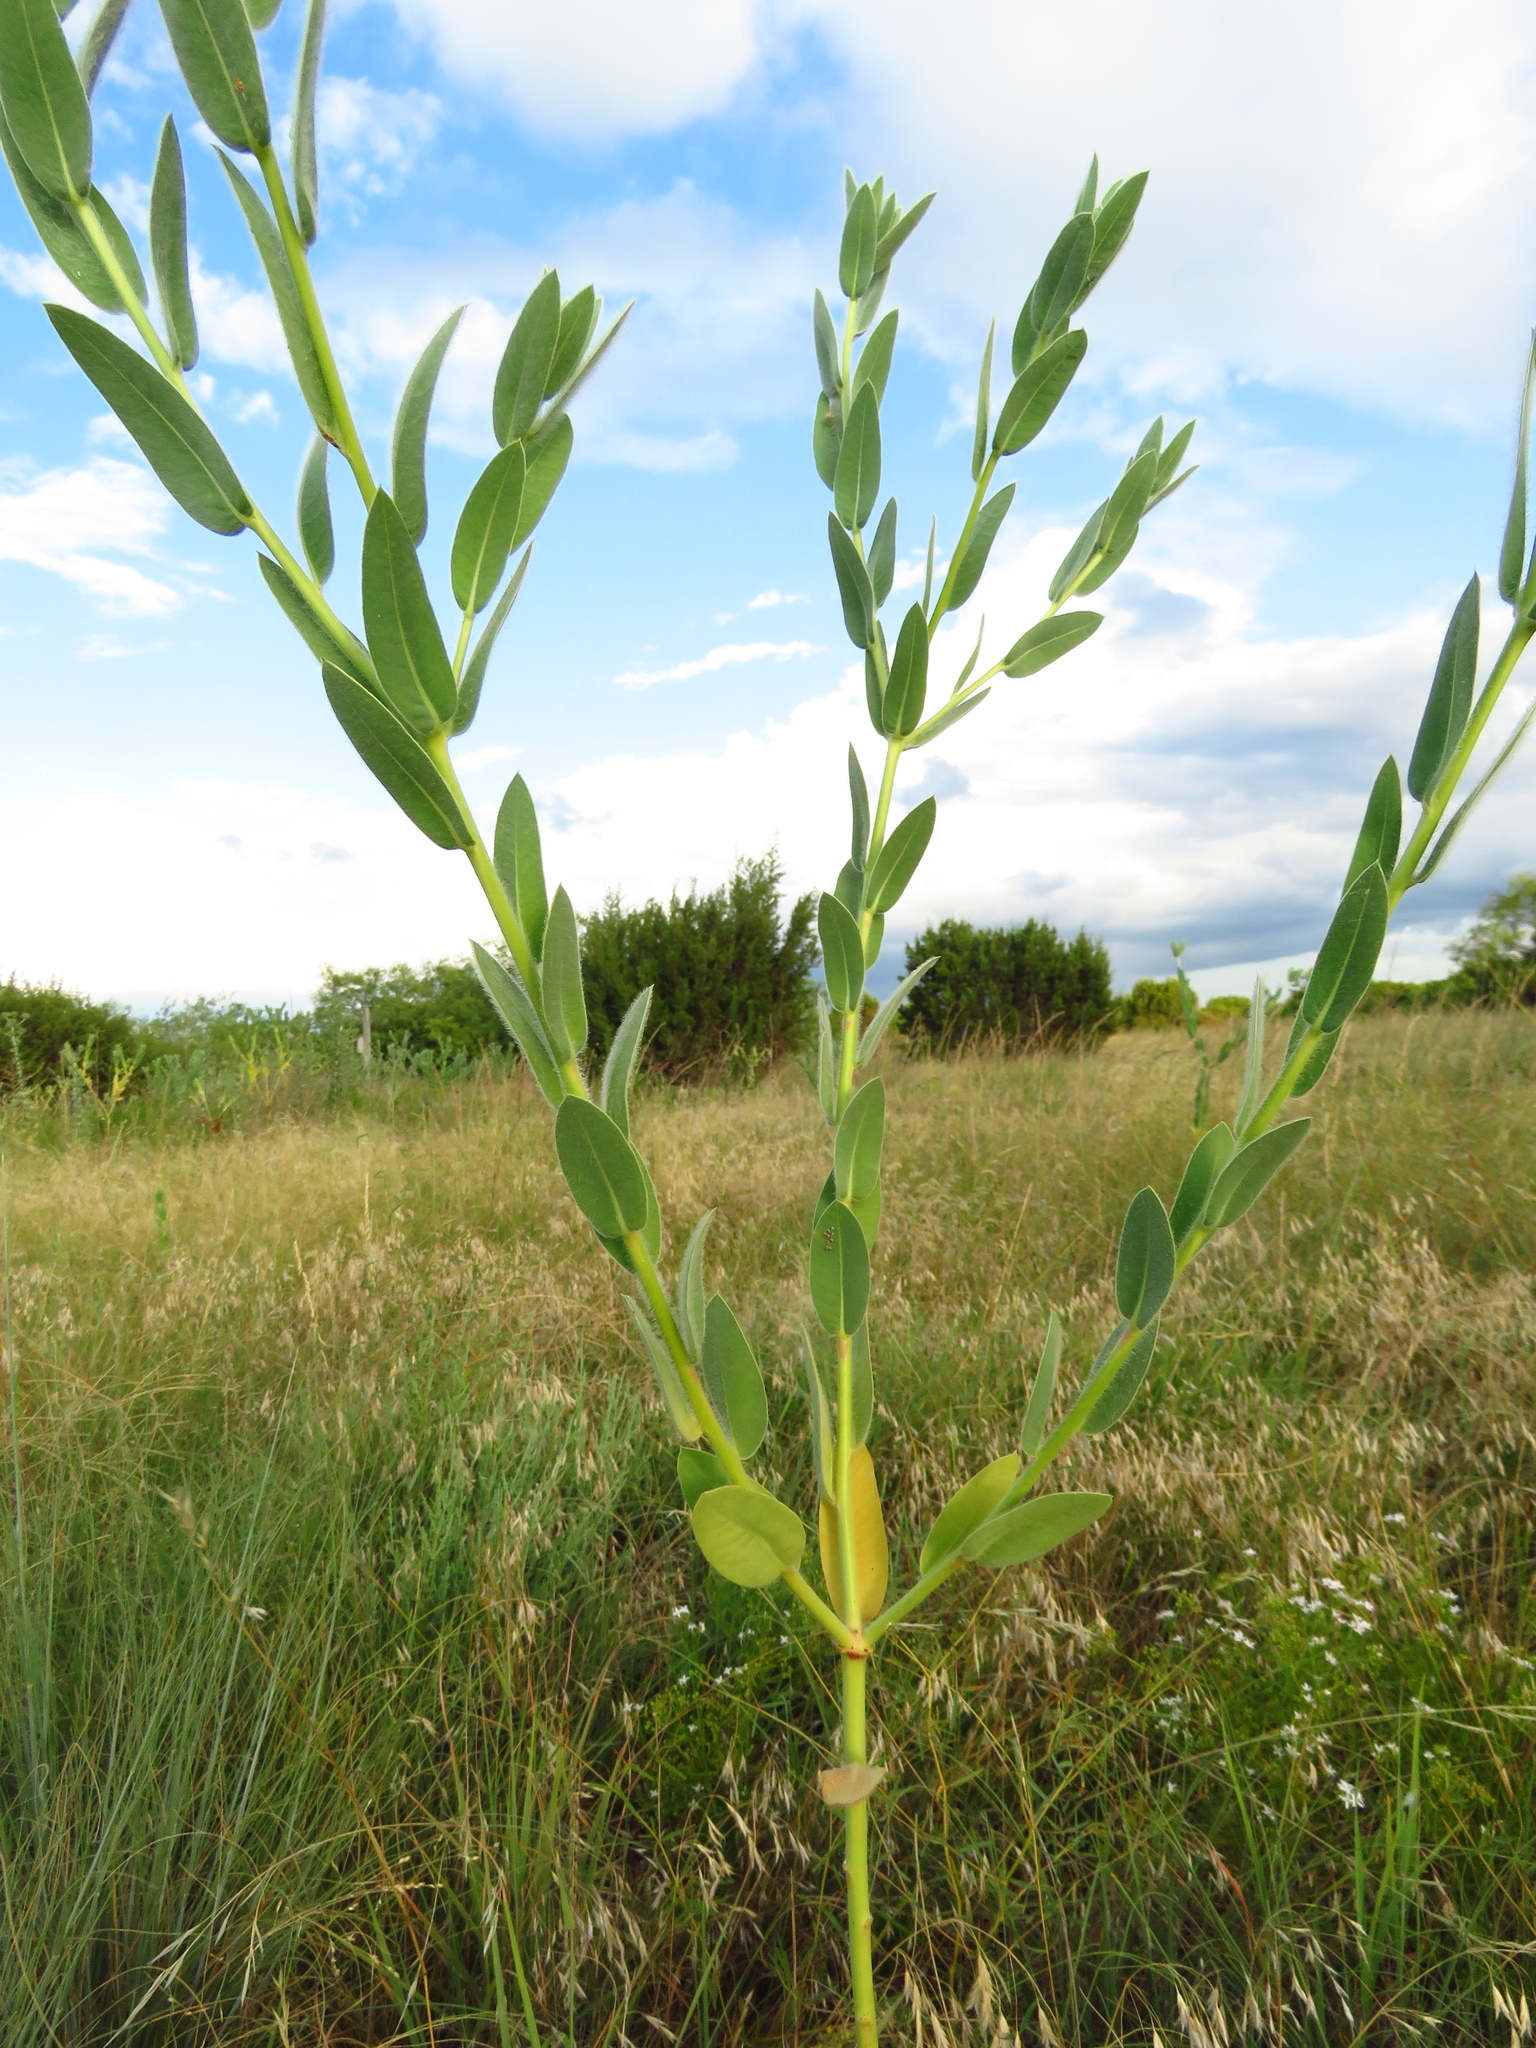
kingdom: Plantae
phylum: Tracheophyta
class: Magnoliopsida
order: Malpighiales
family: Euphorbiaceae
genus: Euphorbia
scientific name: Euphorbia bicolor
